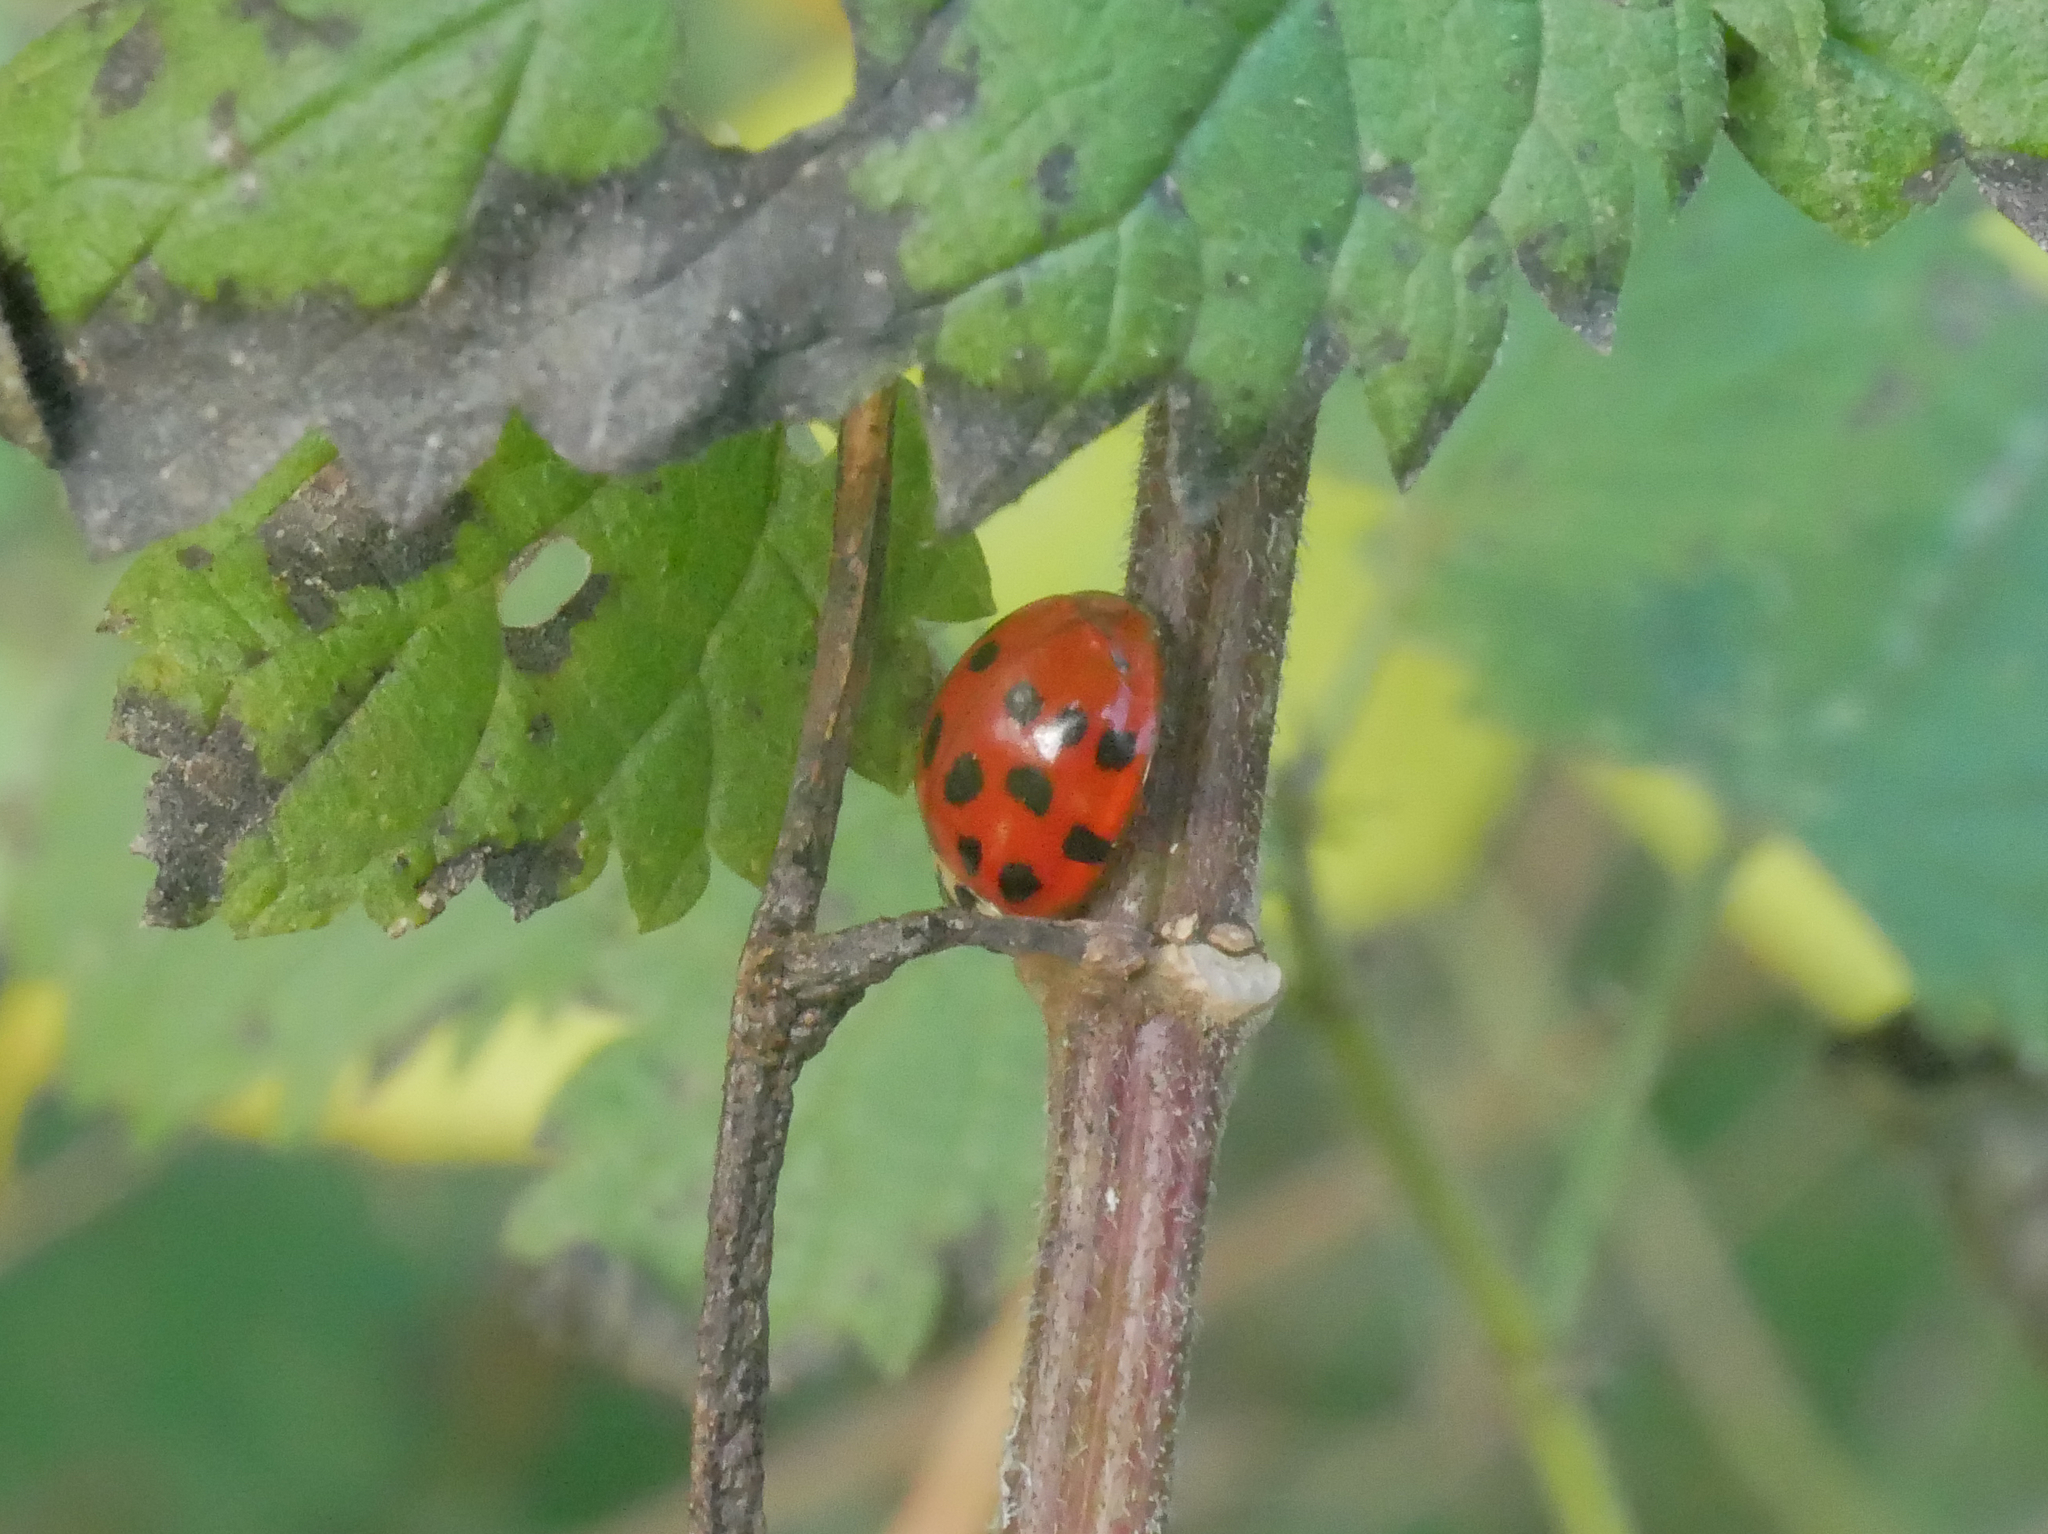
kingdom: Animalia
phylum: Arthropoda
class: Insecta
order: Coleoptera
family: Coccinellidae
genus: Harmonia
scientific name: Harmonia axyridis
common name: Harlequin ladybird
